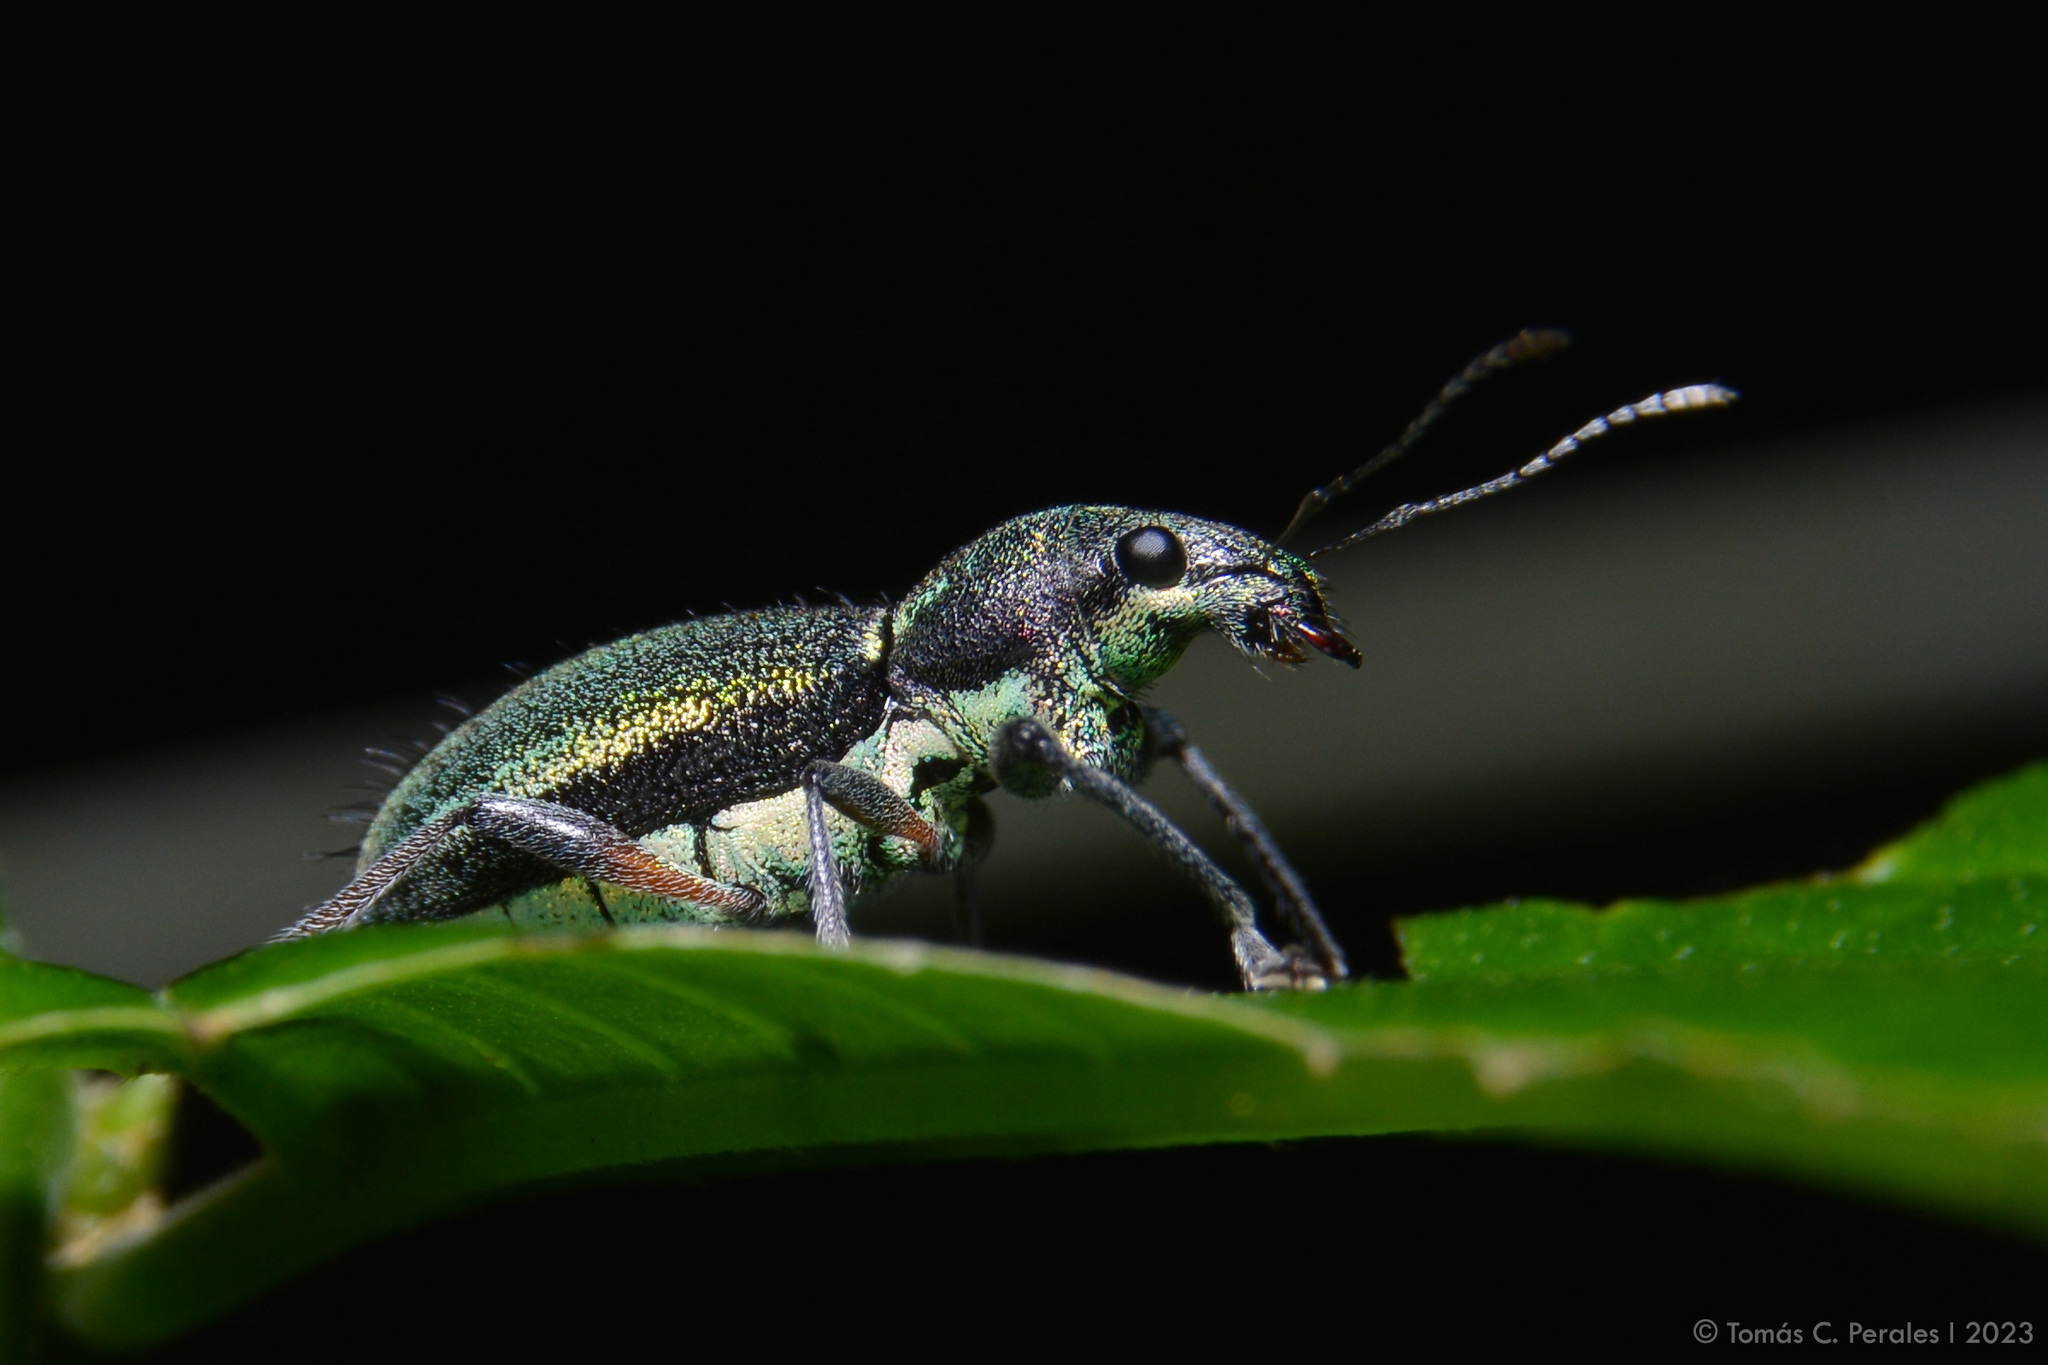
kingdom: Animalia
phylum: Arthropoda
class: Insecta
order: Coleoptera
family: Curculionidae
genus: Naupactus
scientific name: Naupactus auricinctus
